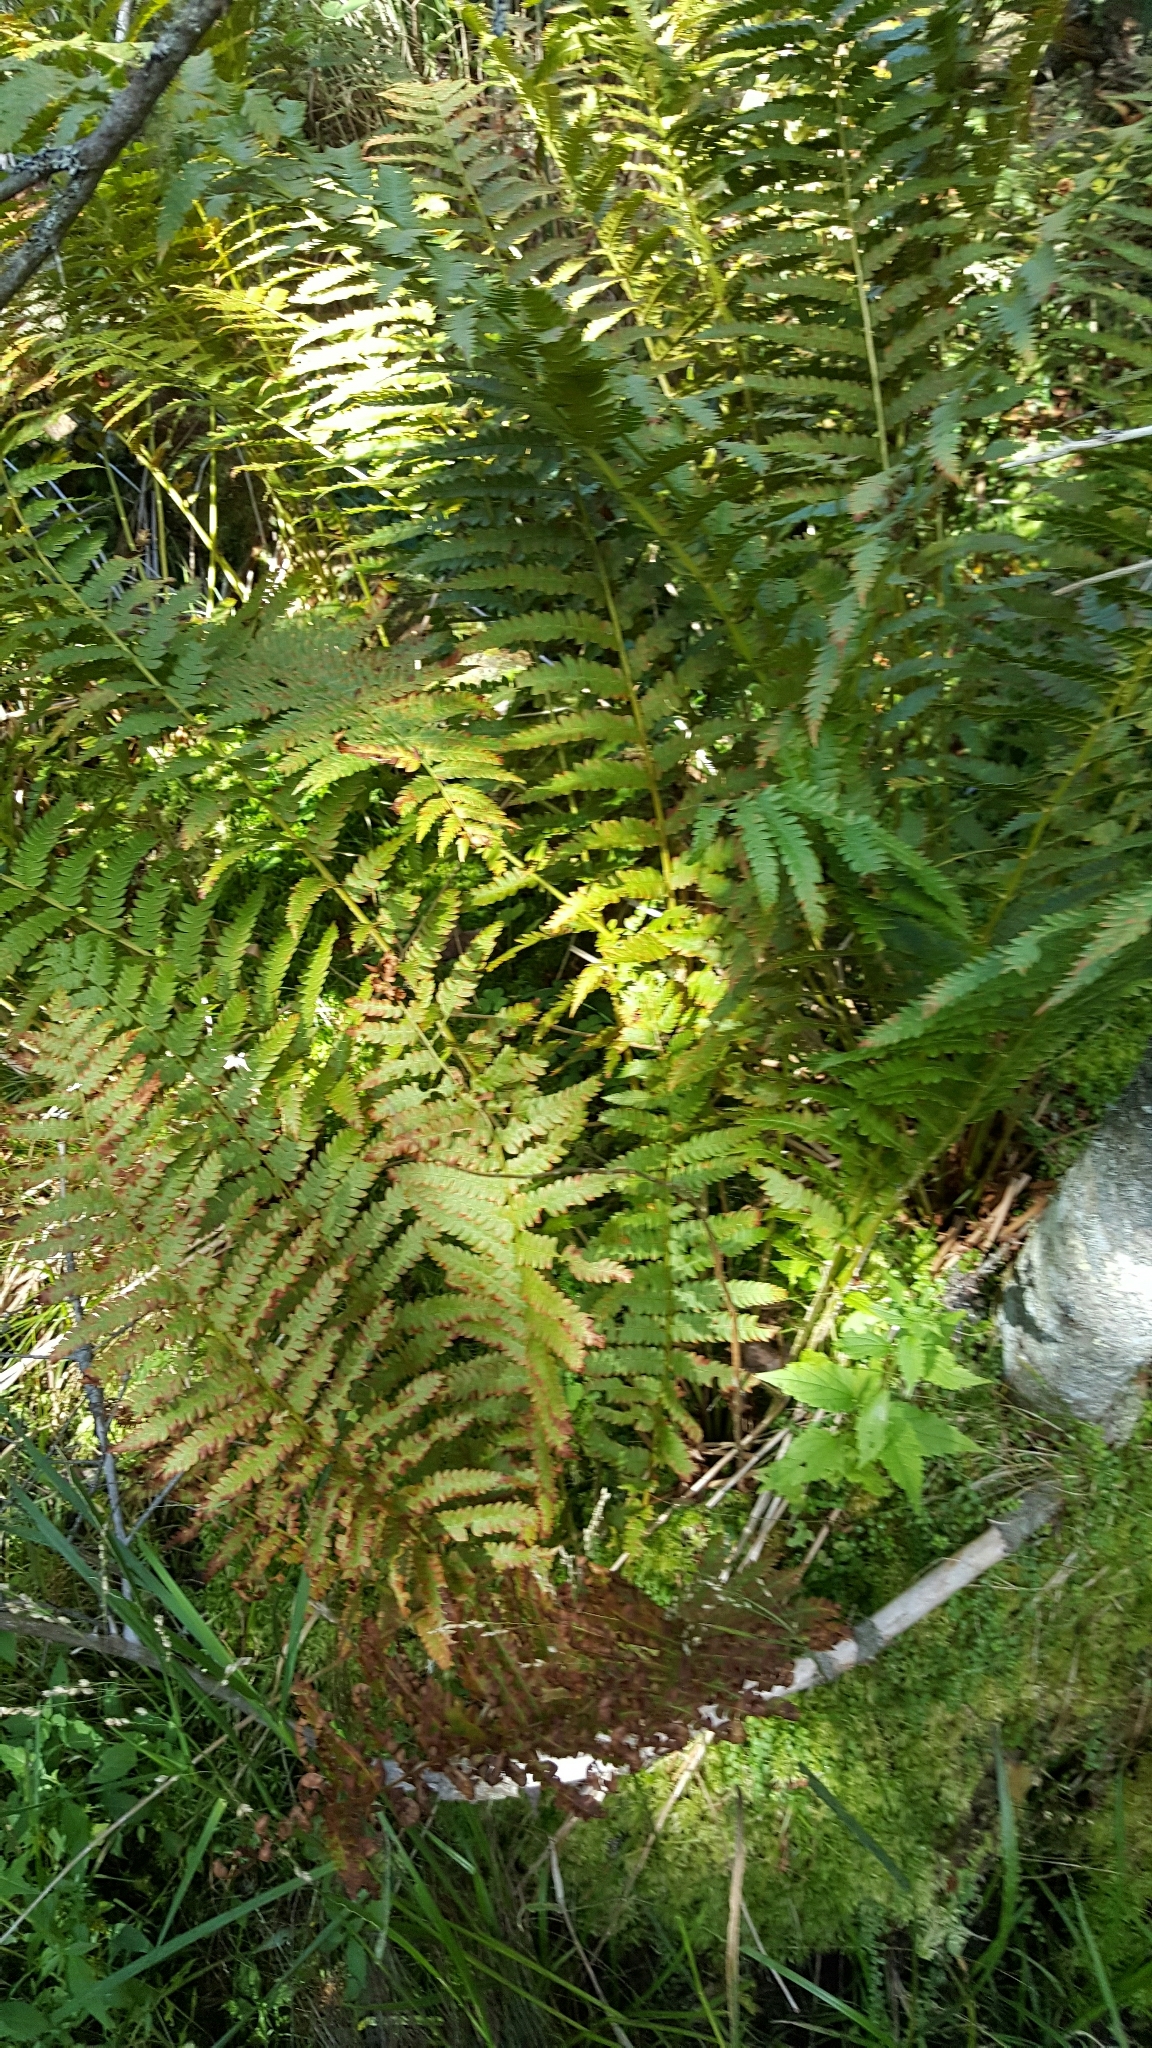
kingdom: Plantae
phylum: Tracheophyta
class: Polypodiopsida
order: Osmundales
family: Osmundaceae
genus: Osmundastrum
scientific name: Osmundastrum cinnamomeum
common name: Cinnamon fern
